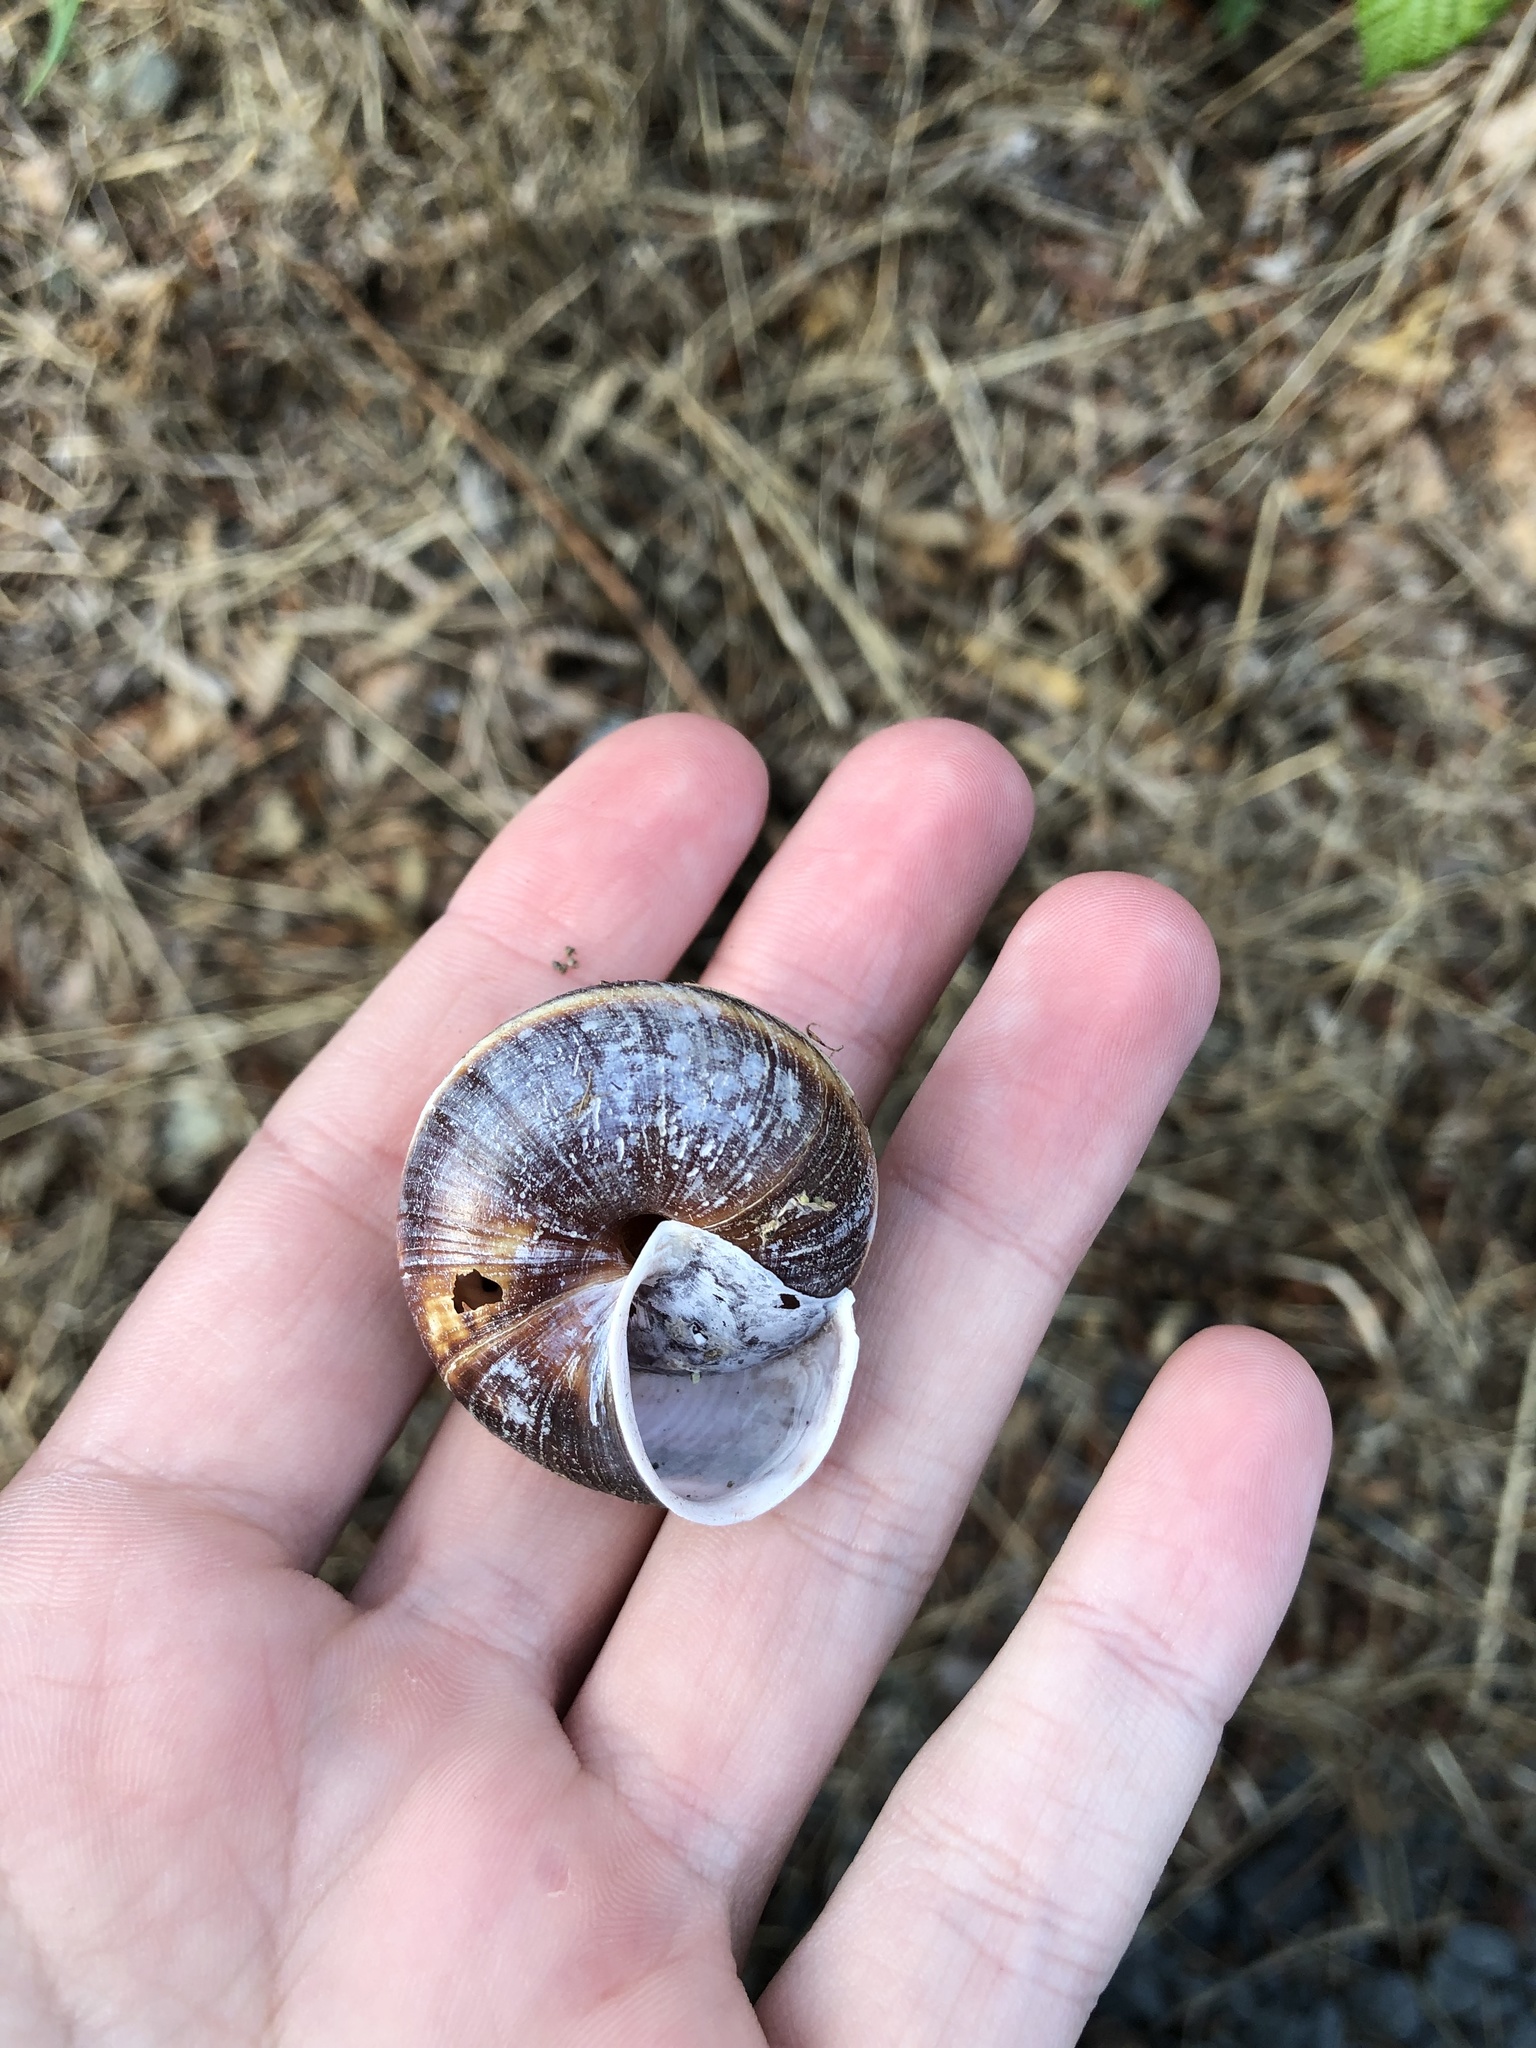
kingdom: Animalia
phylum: Mollusca
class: Gastropoda
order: Stylommatophora
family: Xanthonychidae
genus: Monadenia
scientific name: Monadenia fidelis
